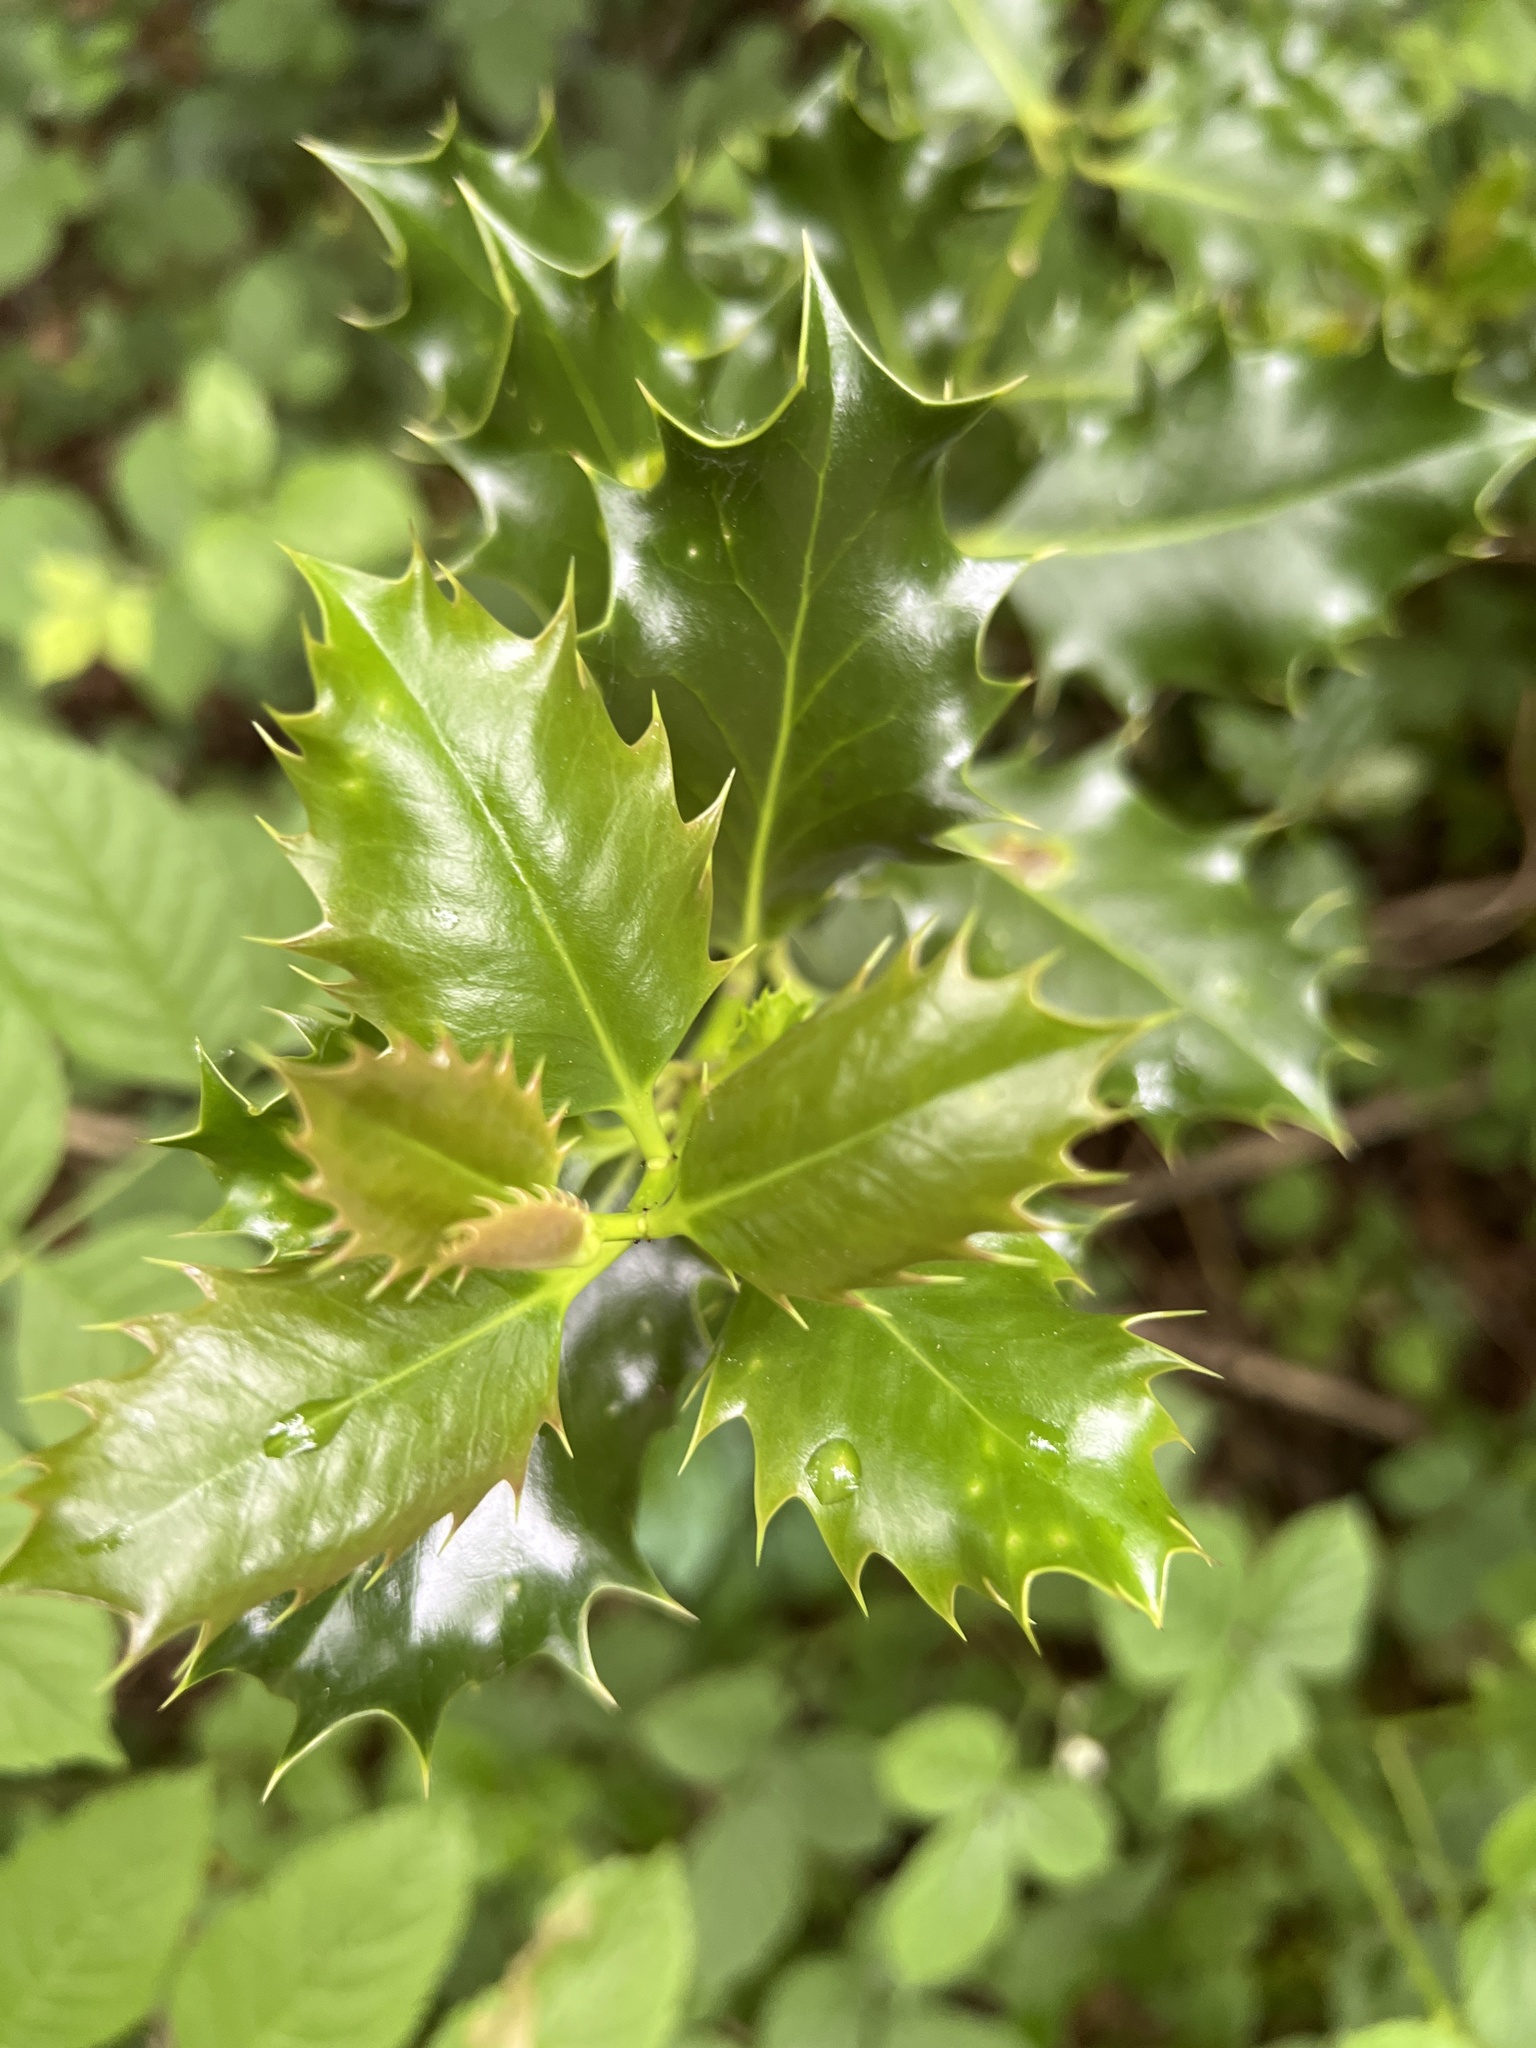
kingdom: Plantae
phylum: Tracheophyta
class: Magnoliopsida
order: Aquifoliales
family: Aquifoliaceae
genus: Ilex
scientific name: Ilex aquifolium
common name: English holly
